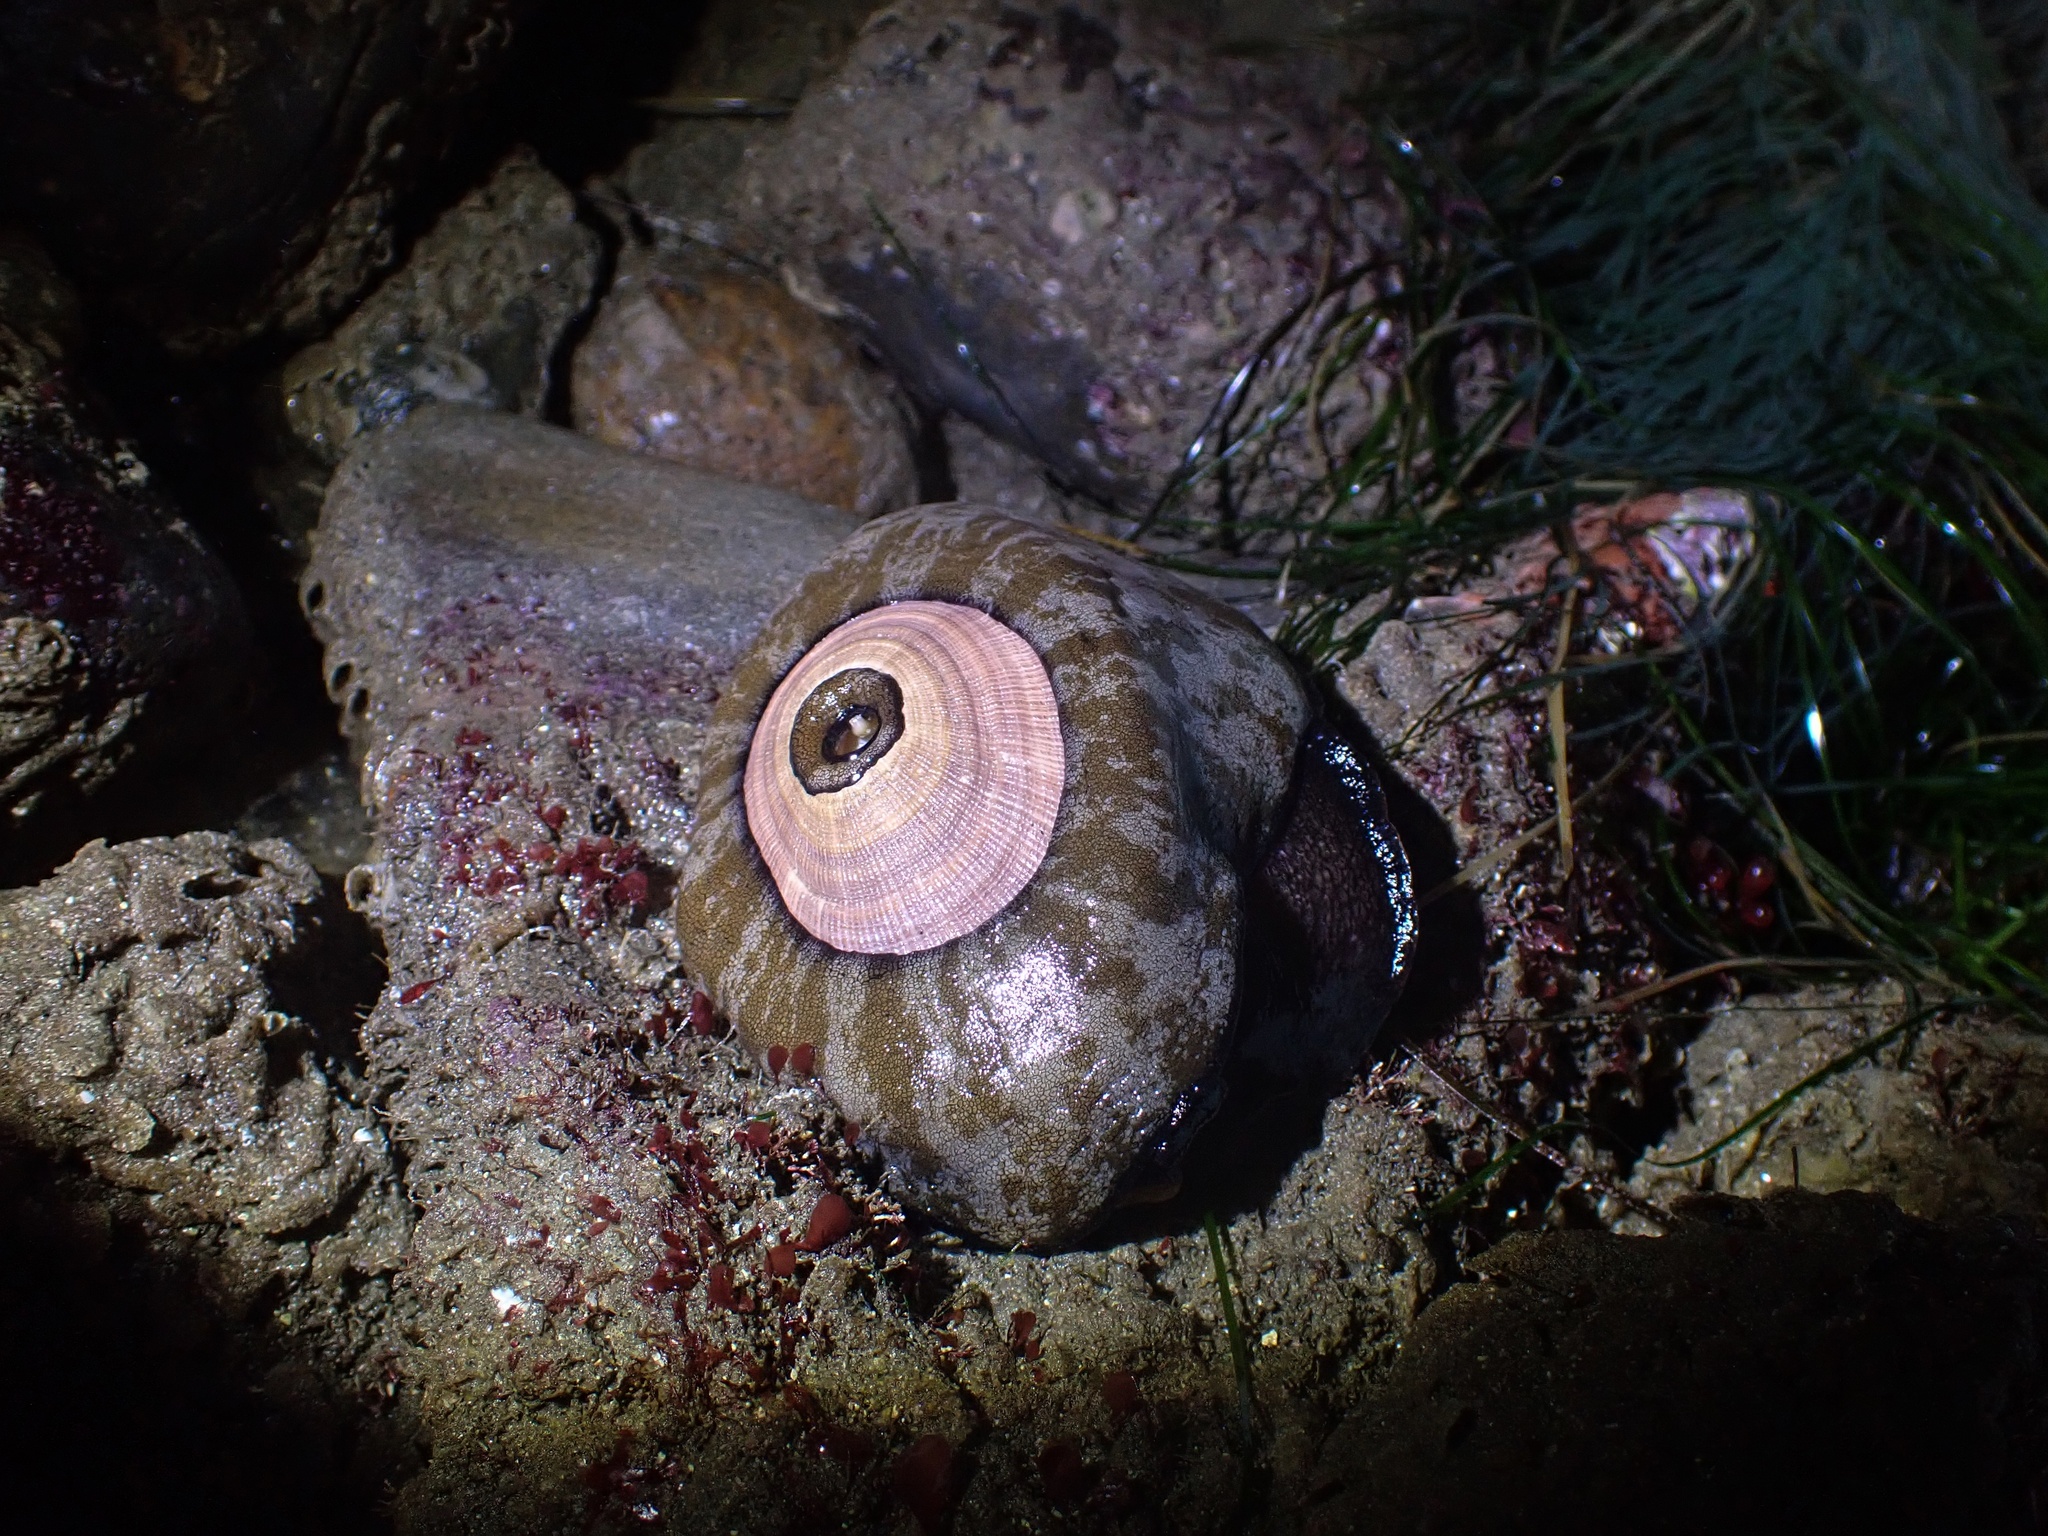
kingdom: Animalia
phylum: Mollusca
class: Gastropoda
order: Lepetellida
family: Fissurellidae
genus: Megathura
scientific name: Megathura crenulata
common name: Giant keyhole limpet
